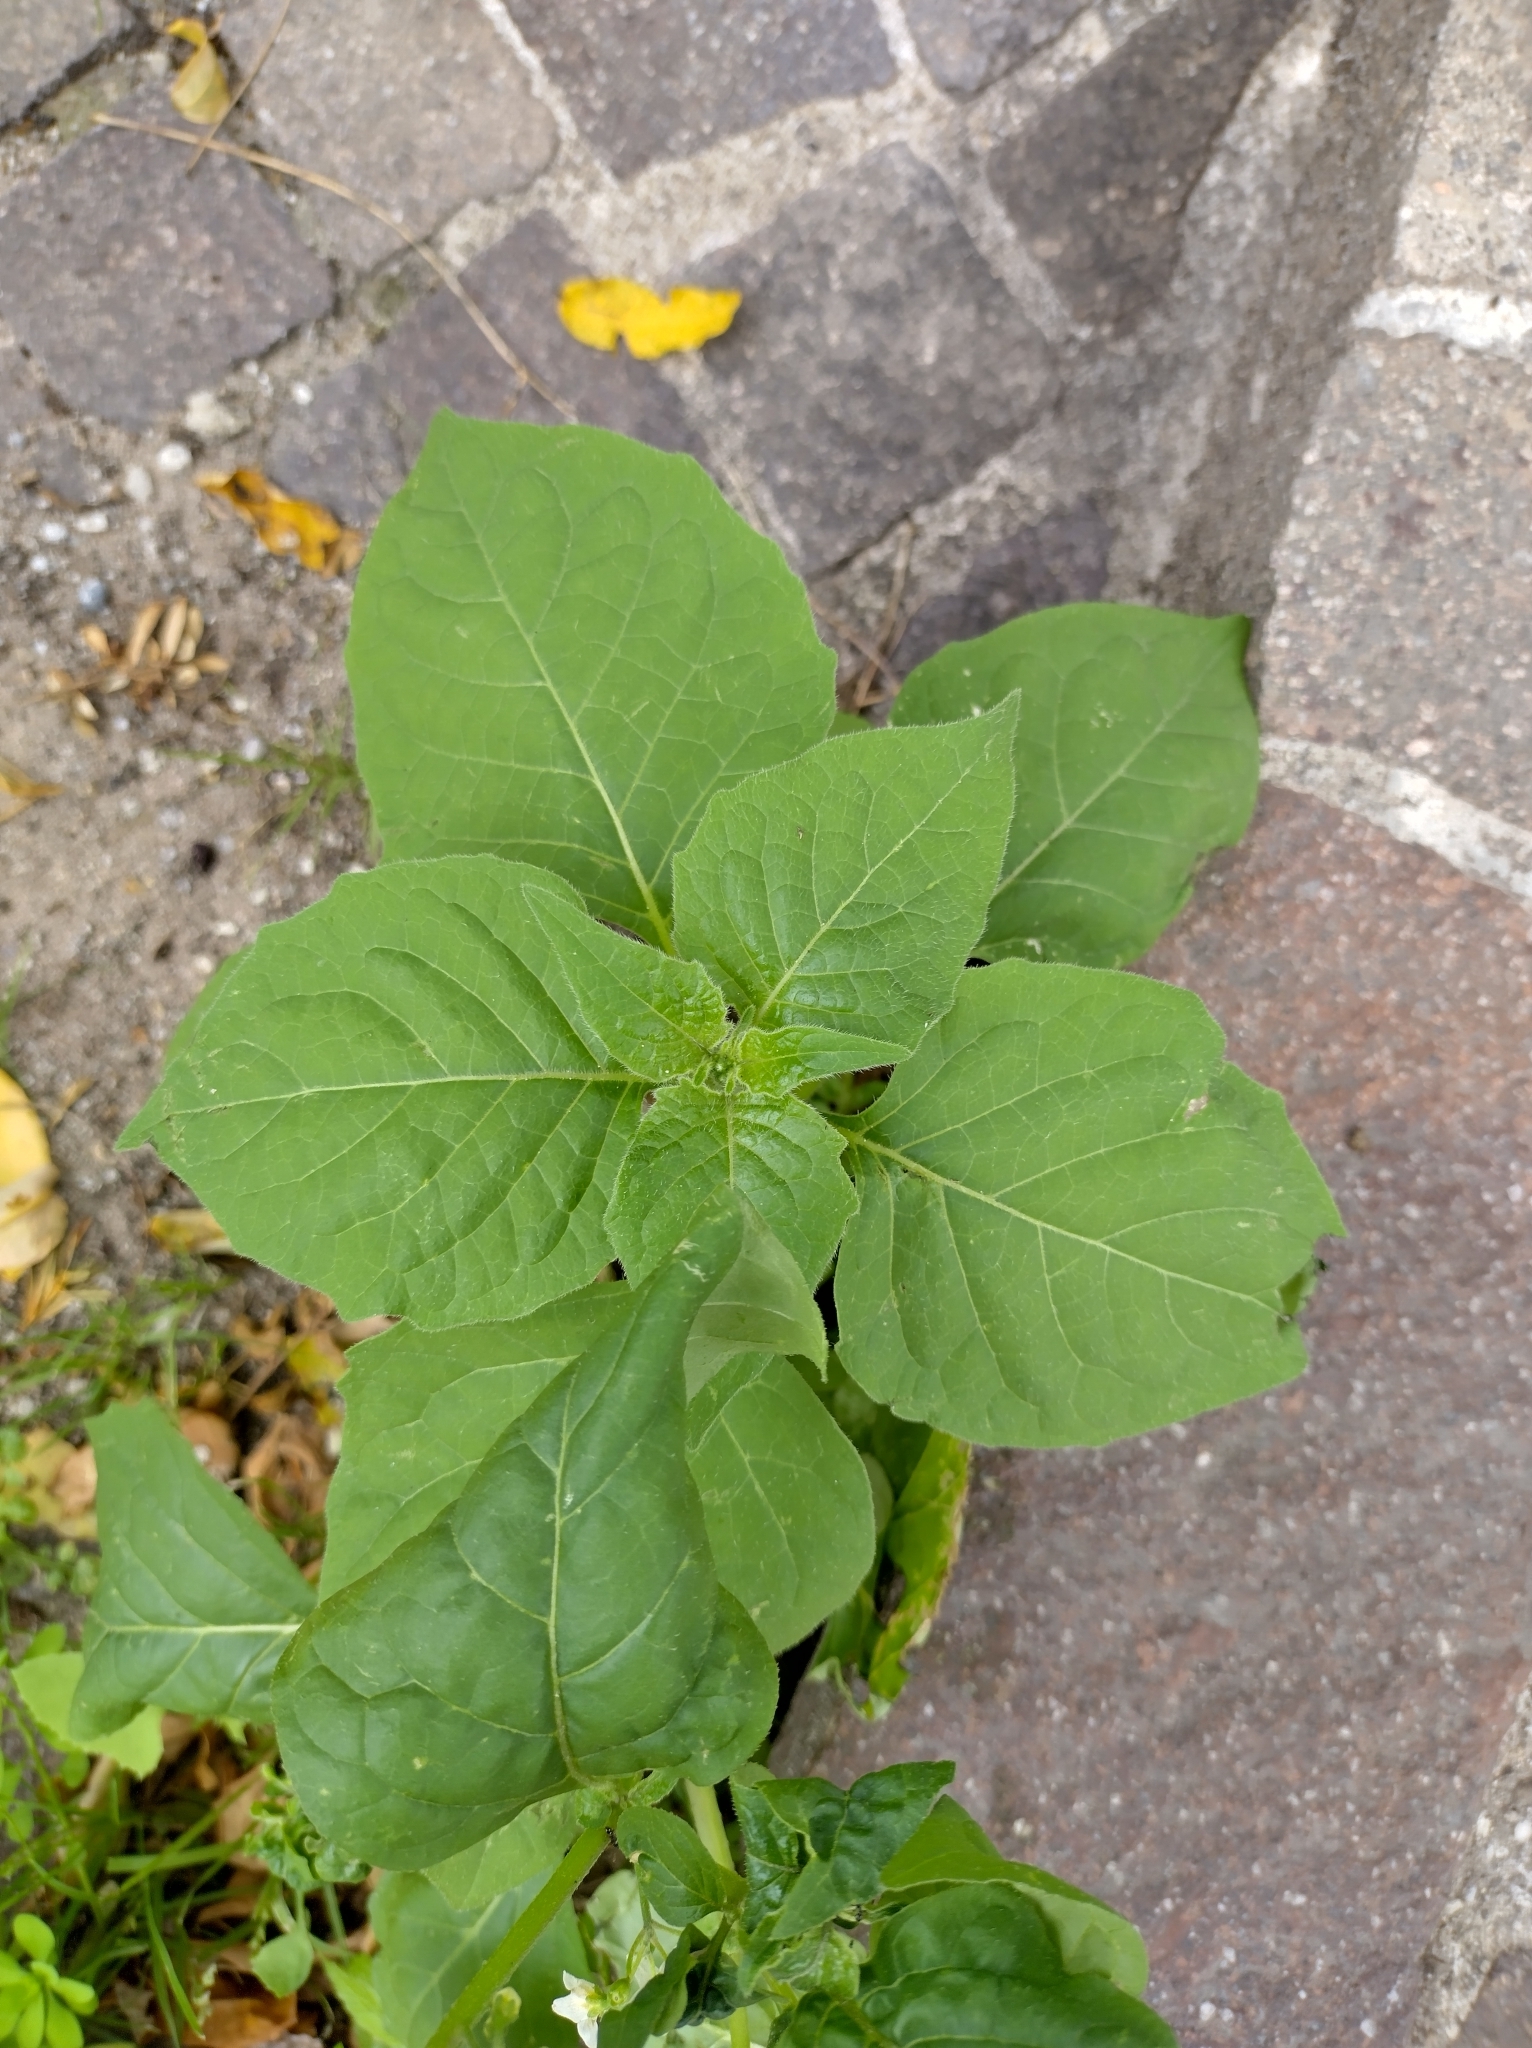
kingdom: Plantae
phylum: Tracheophyta
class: Magnoliopsida
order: Solanales
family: Solanaceae
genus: Solanum
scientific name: Solanum nigrum
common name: Black nightshade
